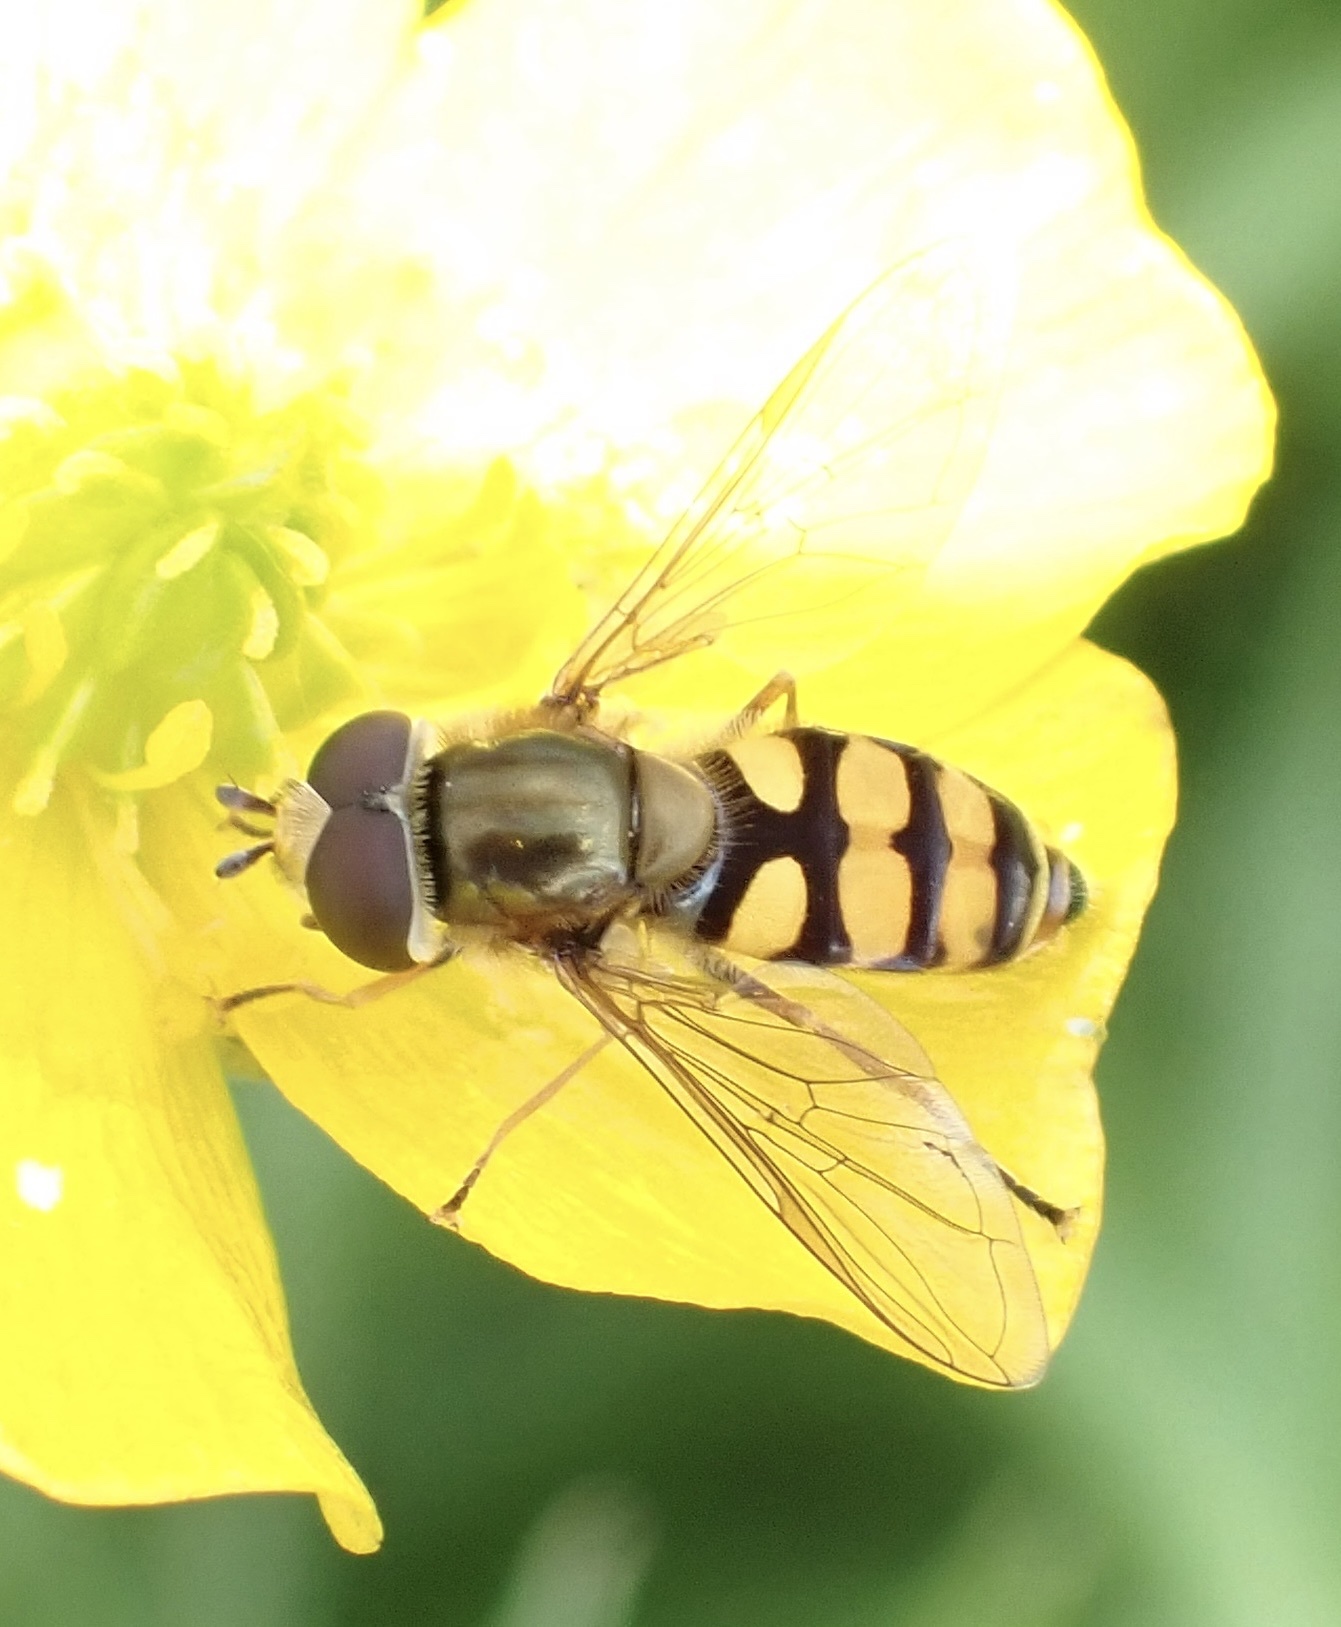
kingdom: Animalia
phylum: Arthropoda
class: Insecta
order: Diptera
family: Syrphidae
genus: Eupeodes
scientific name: Eupeodes corollae
